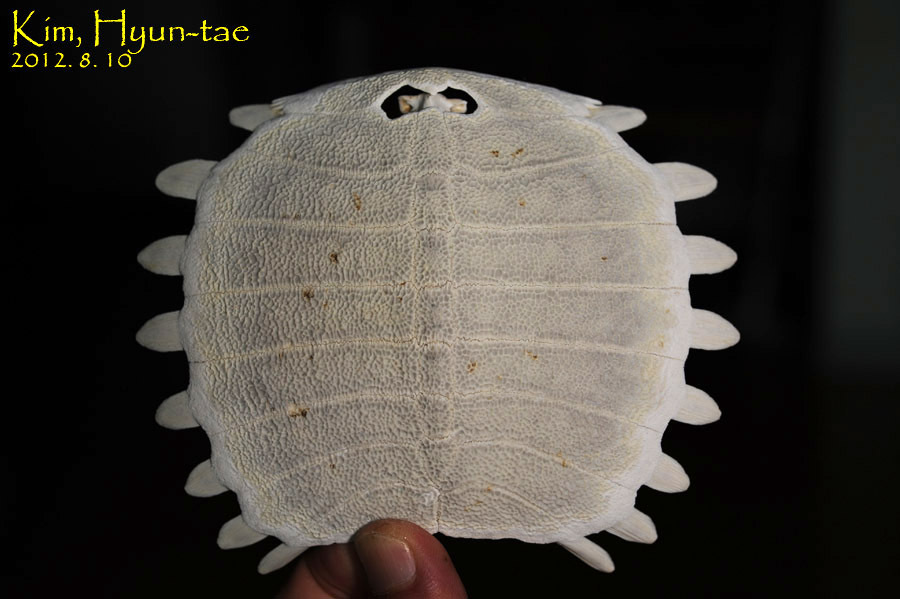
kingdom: Animalia
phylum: Chordata
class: Testudines
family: Trionychidae
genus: Pelodiscus
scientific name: Pelodiscus maackii
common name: Northern chinese softshell turtle
